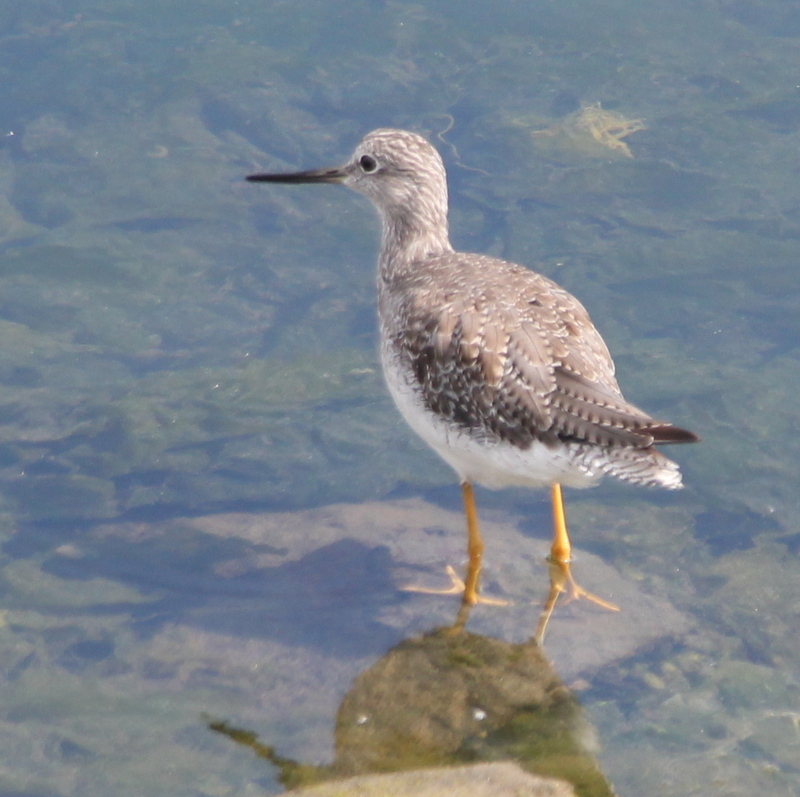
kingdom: Animalia
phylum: Chordata
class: Aves
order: Charadriiformes
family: Scolopacidae
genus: Tringa
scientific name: Tringa melanoleuca
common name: Greater yellowlegs
